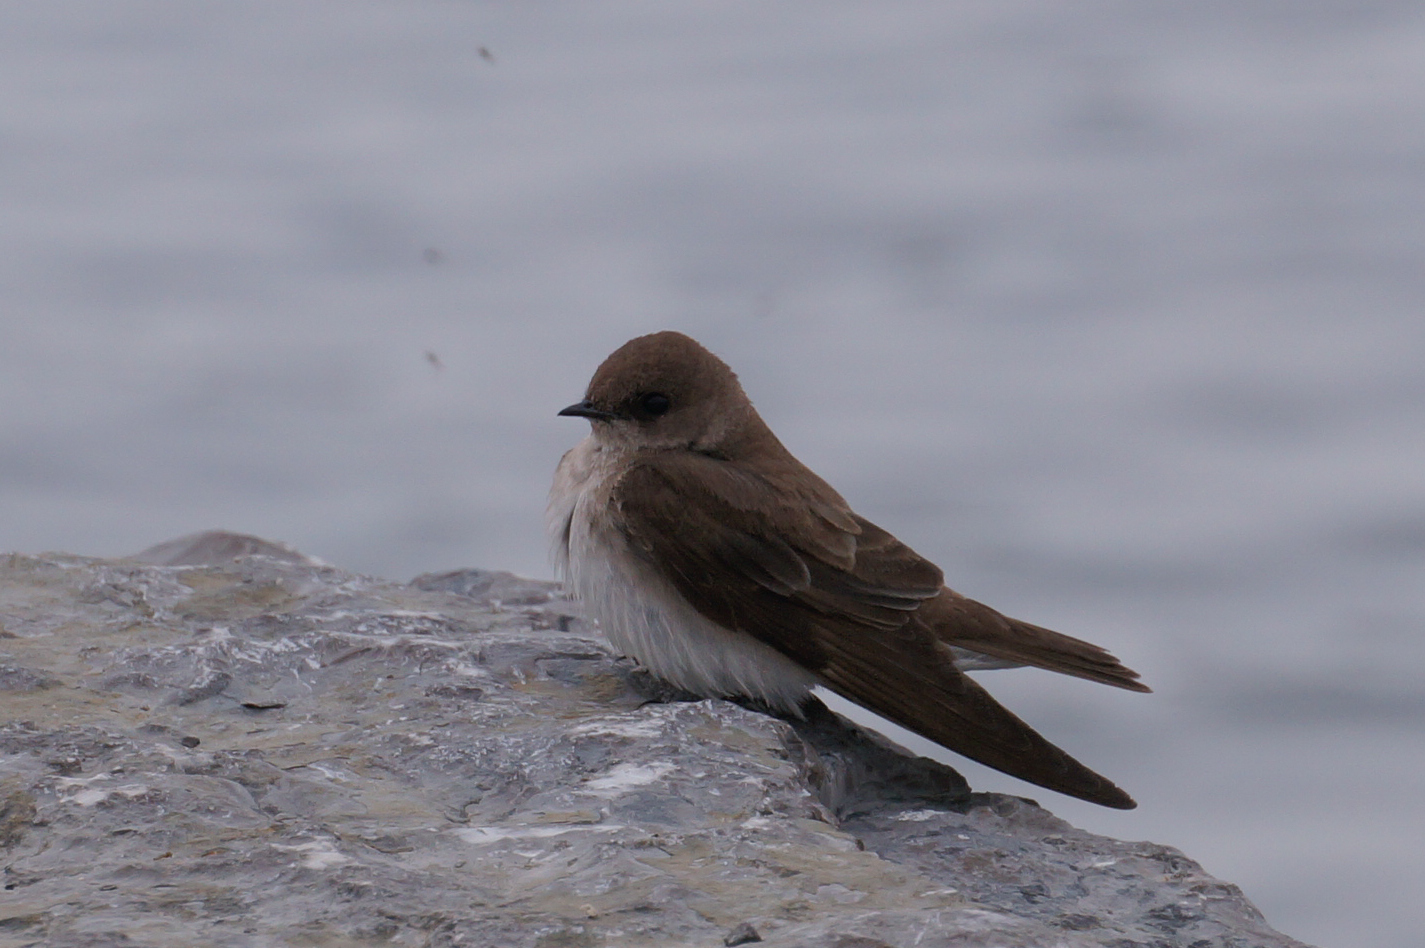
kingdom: Animalia
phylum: Chordata
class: Aves
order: Passeriformes
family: Hirundinidae
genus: Stelgidopteryx
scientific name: Stelgidopteryx serripennis
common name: Northern rough-winged swallow
